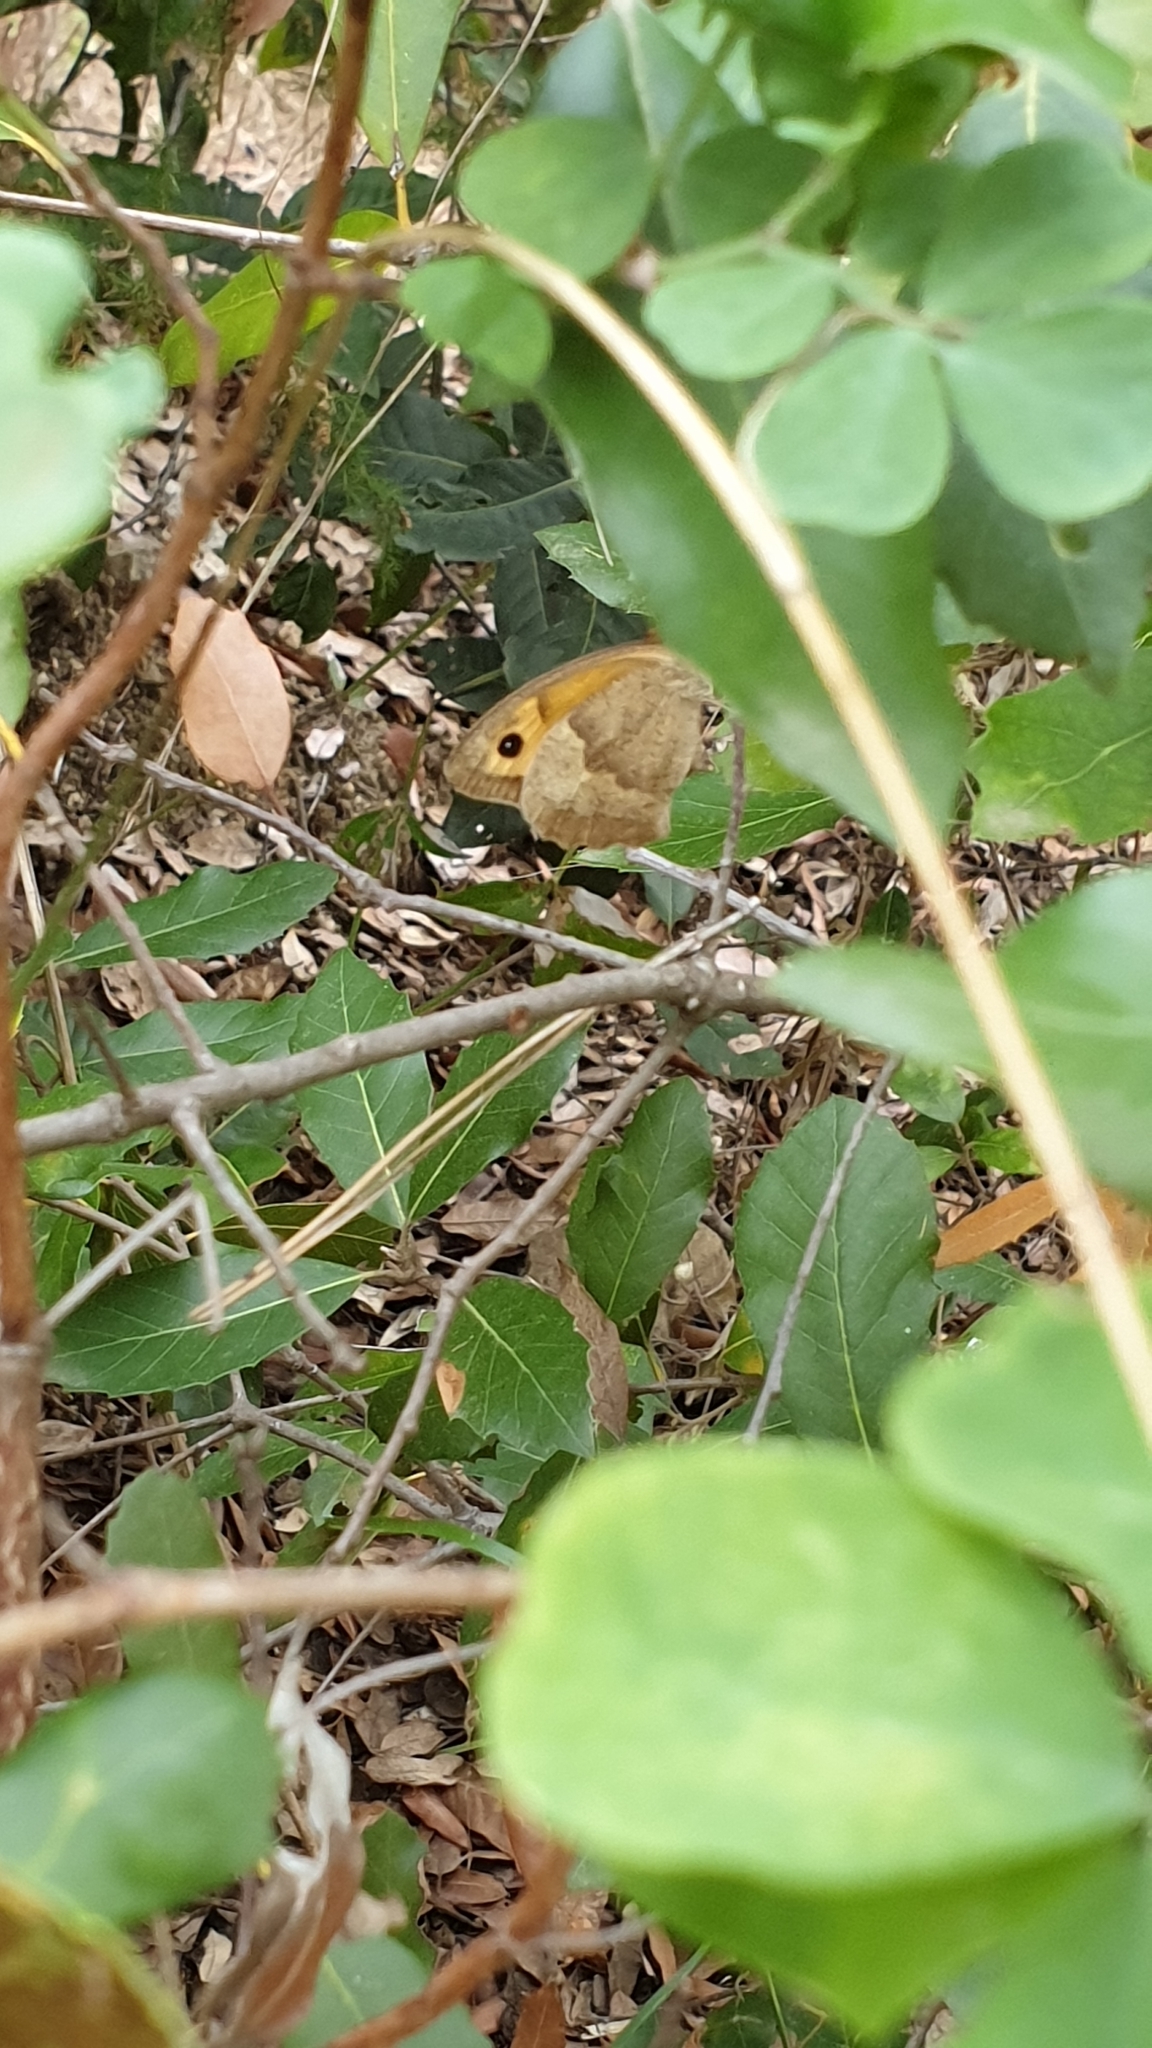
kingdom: Animalia
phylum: Arthropoda
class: Insecta
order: Lepidoptera
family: Nymphalidae
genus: Maniola
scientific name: Maniola jurtina
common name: Meadow brown
